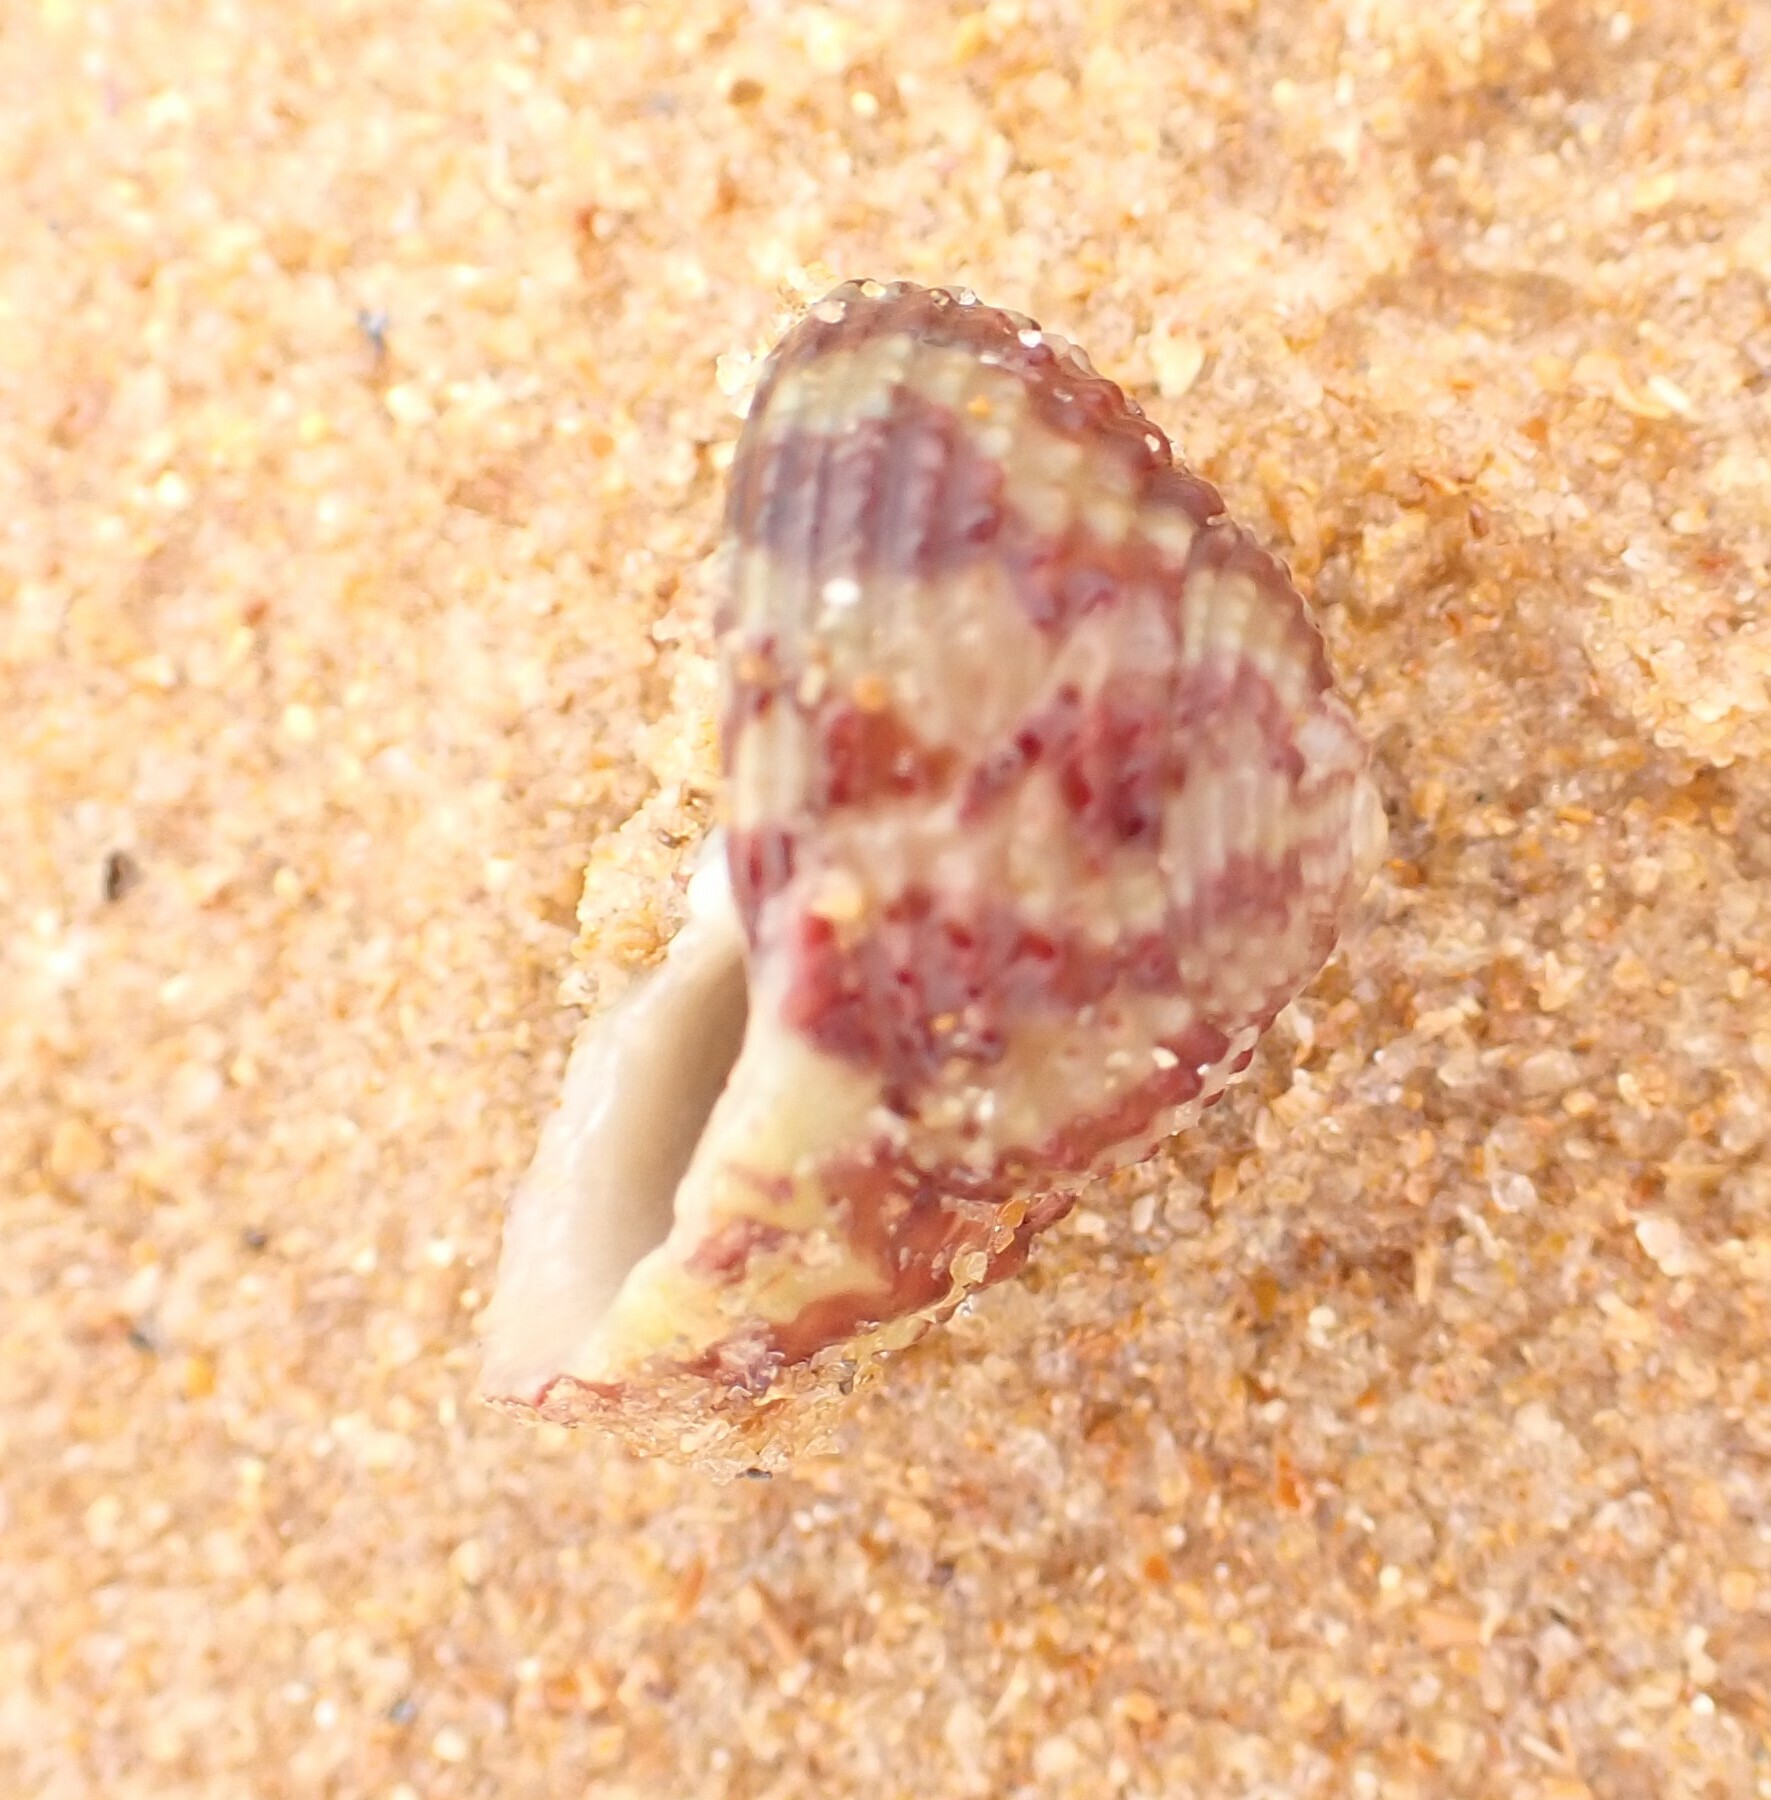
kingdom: Animalia
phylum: Mollusca
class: Gastropoda
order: Trochida
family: Tegulidae
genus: Agathistoma
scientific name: Agathistoma viridulum
